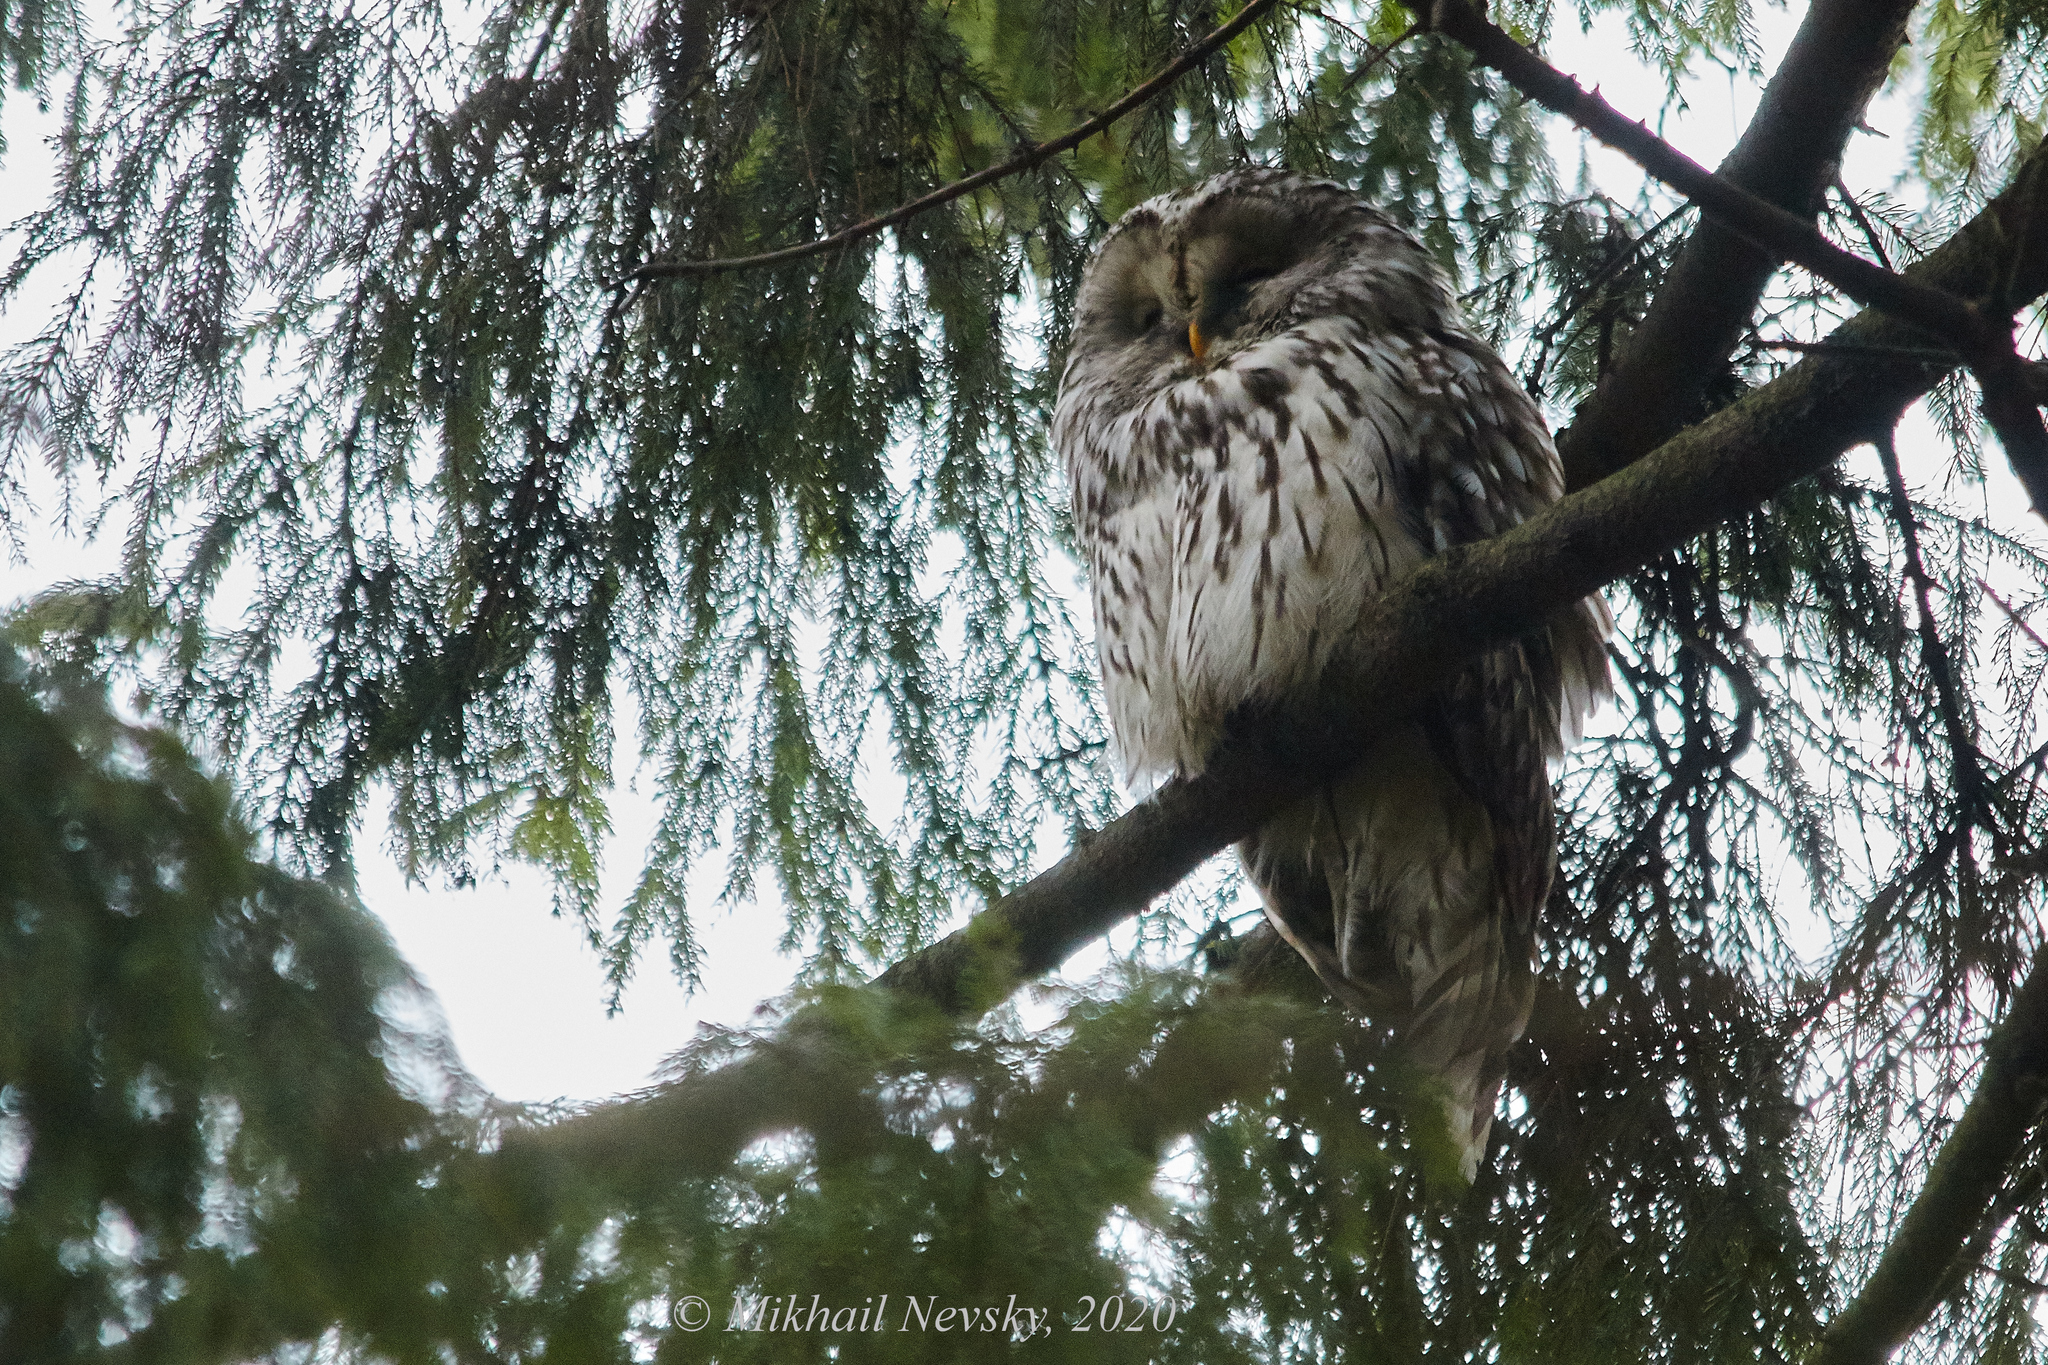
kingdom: Animalia
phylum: Chordata
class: Aves
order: Strigiformes
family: Strigidae
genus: Strix
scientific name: Strix uralensis
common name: Ural owl
